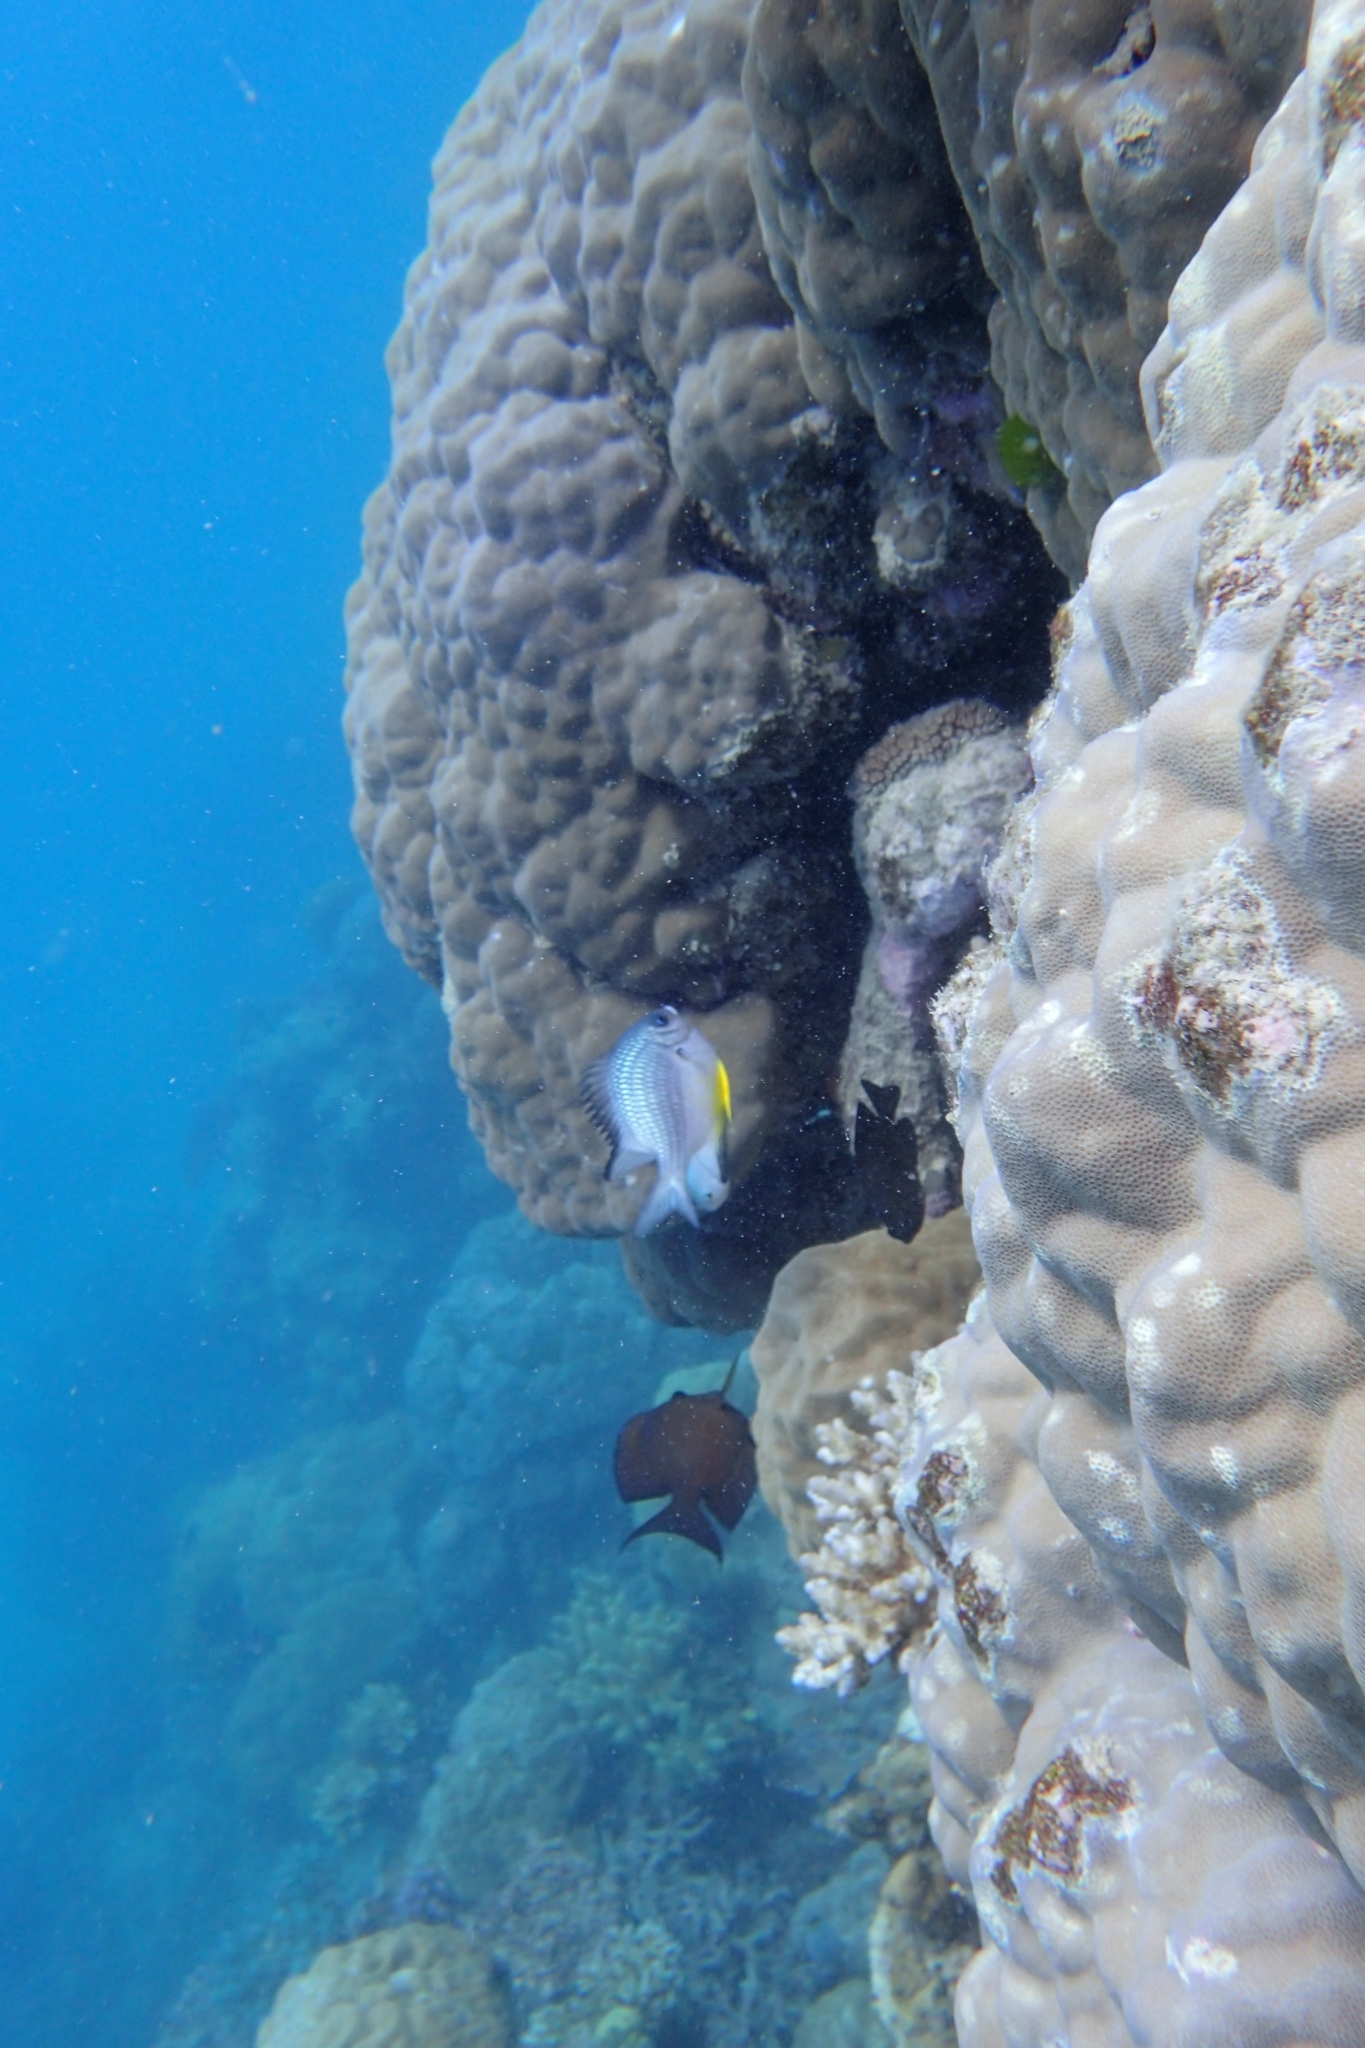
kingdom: Animalia
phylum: Chordata
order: Perciformes
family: Pomacentridae
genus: Amblyglyphidodon
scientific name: Amblyglyphidodon leucogaster
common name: White-belly damsel
